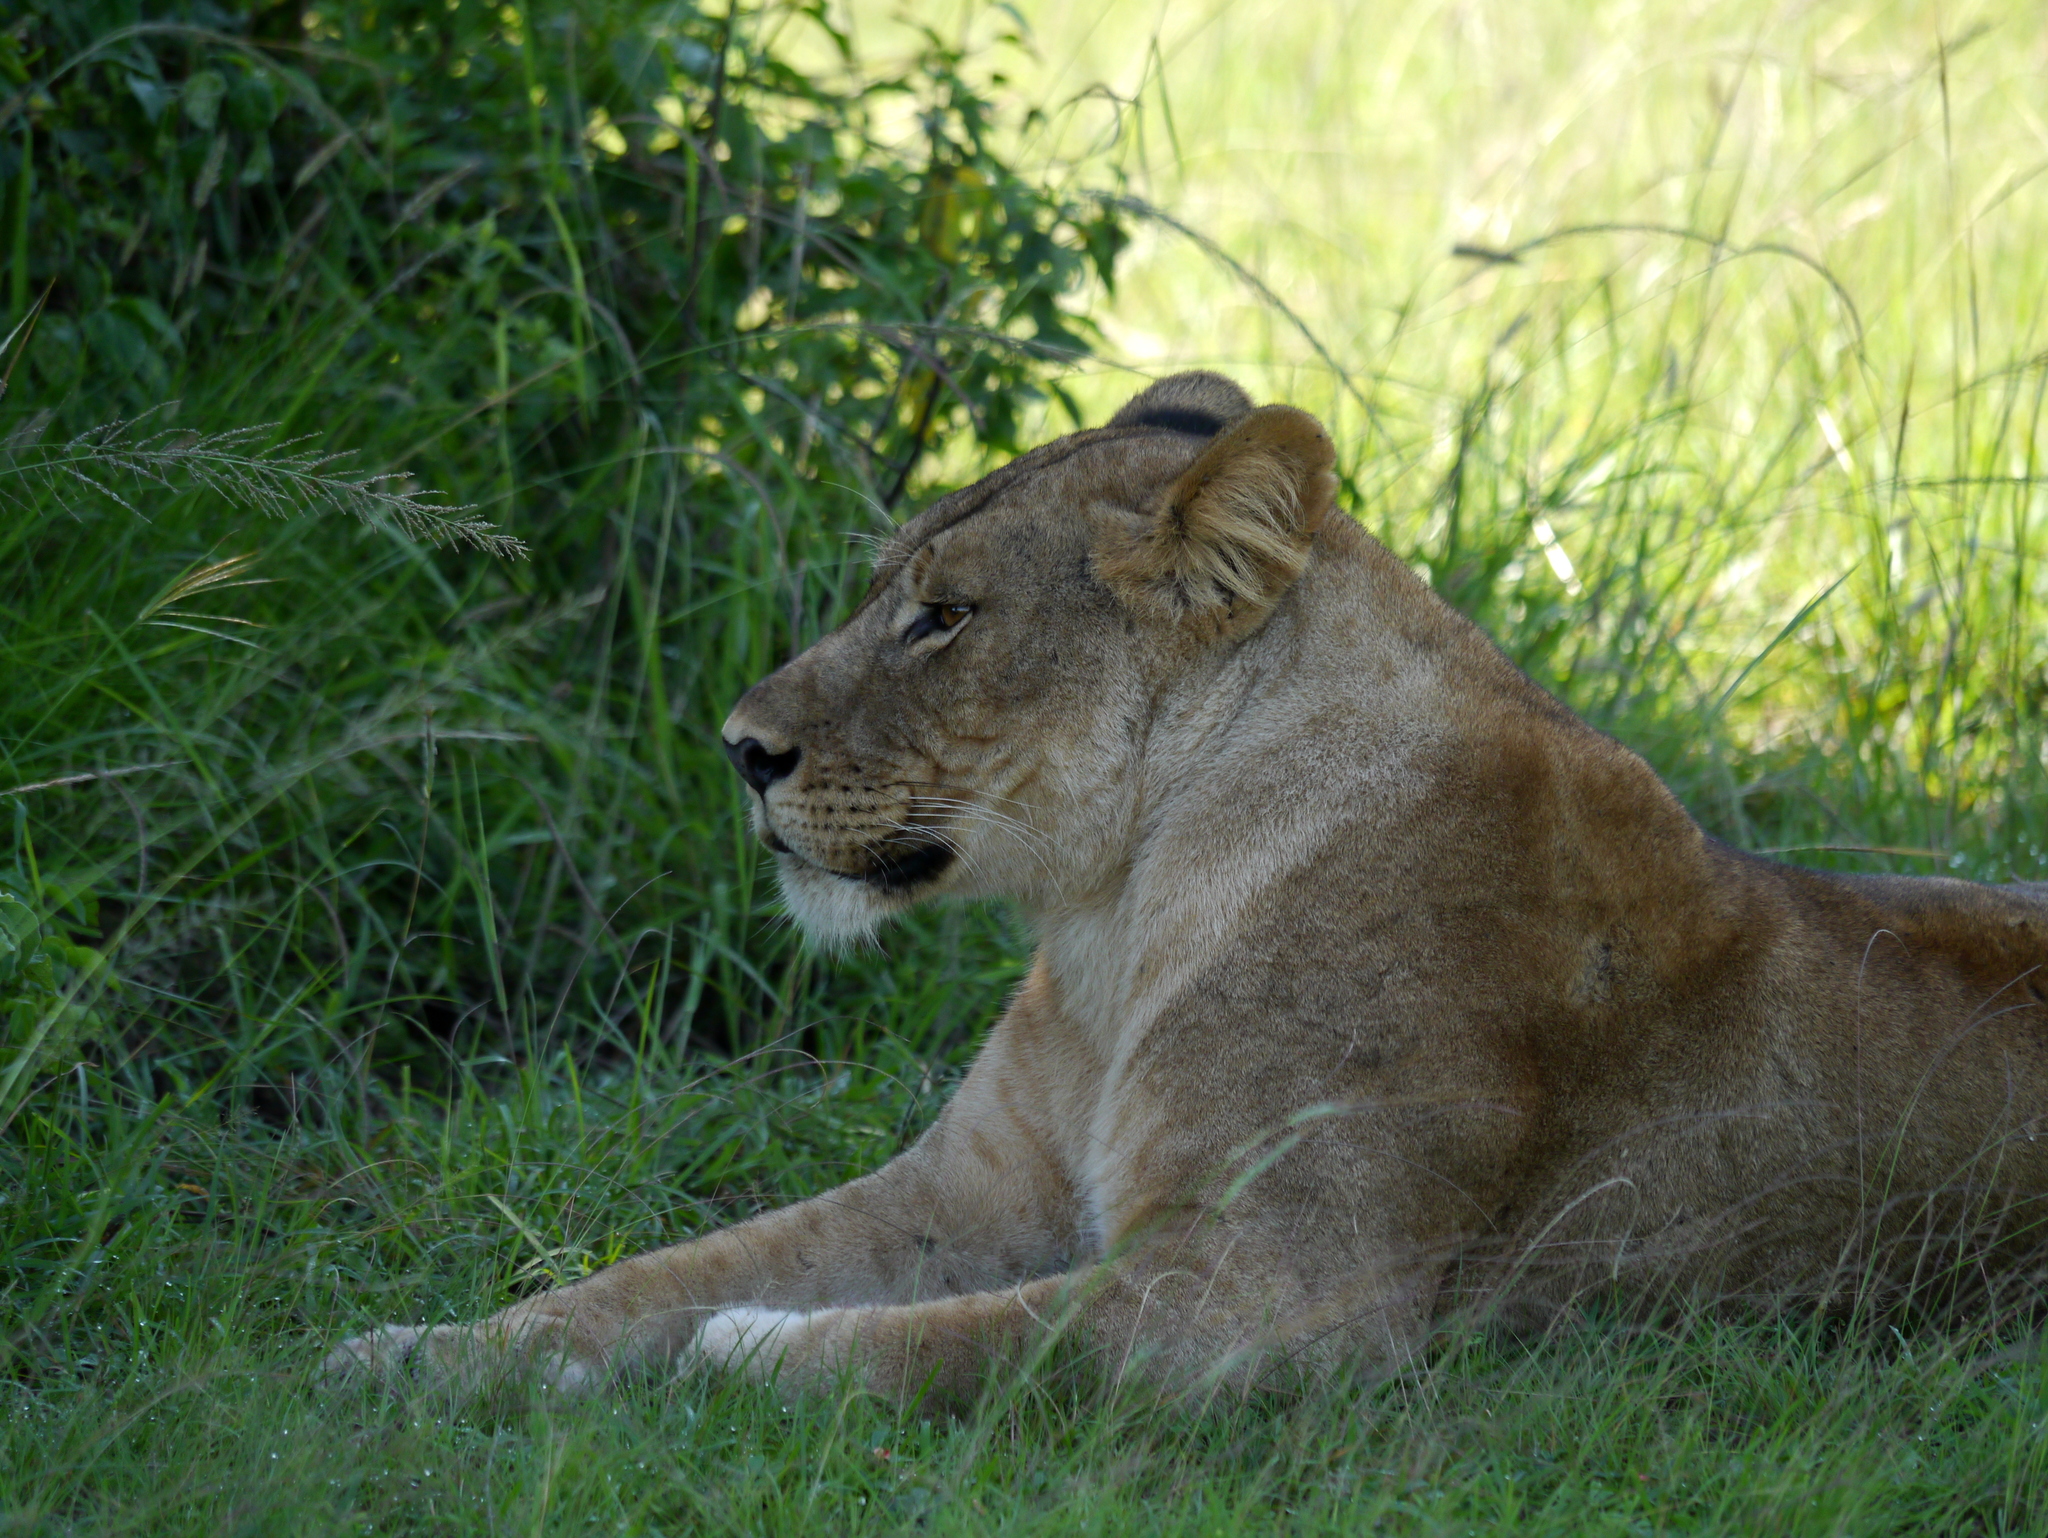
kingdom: Animalia
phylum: Chordata
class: Mammalia
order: Carnivora
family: Felidae
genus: Panthera
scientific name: Panthera leo
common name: Lion
